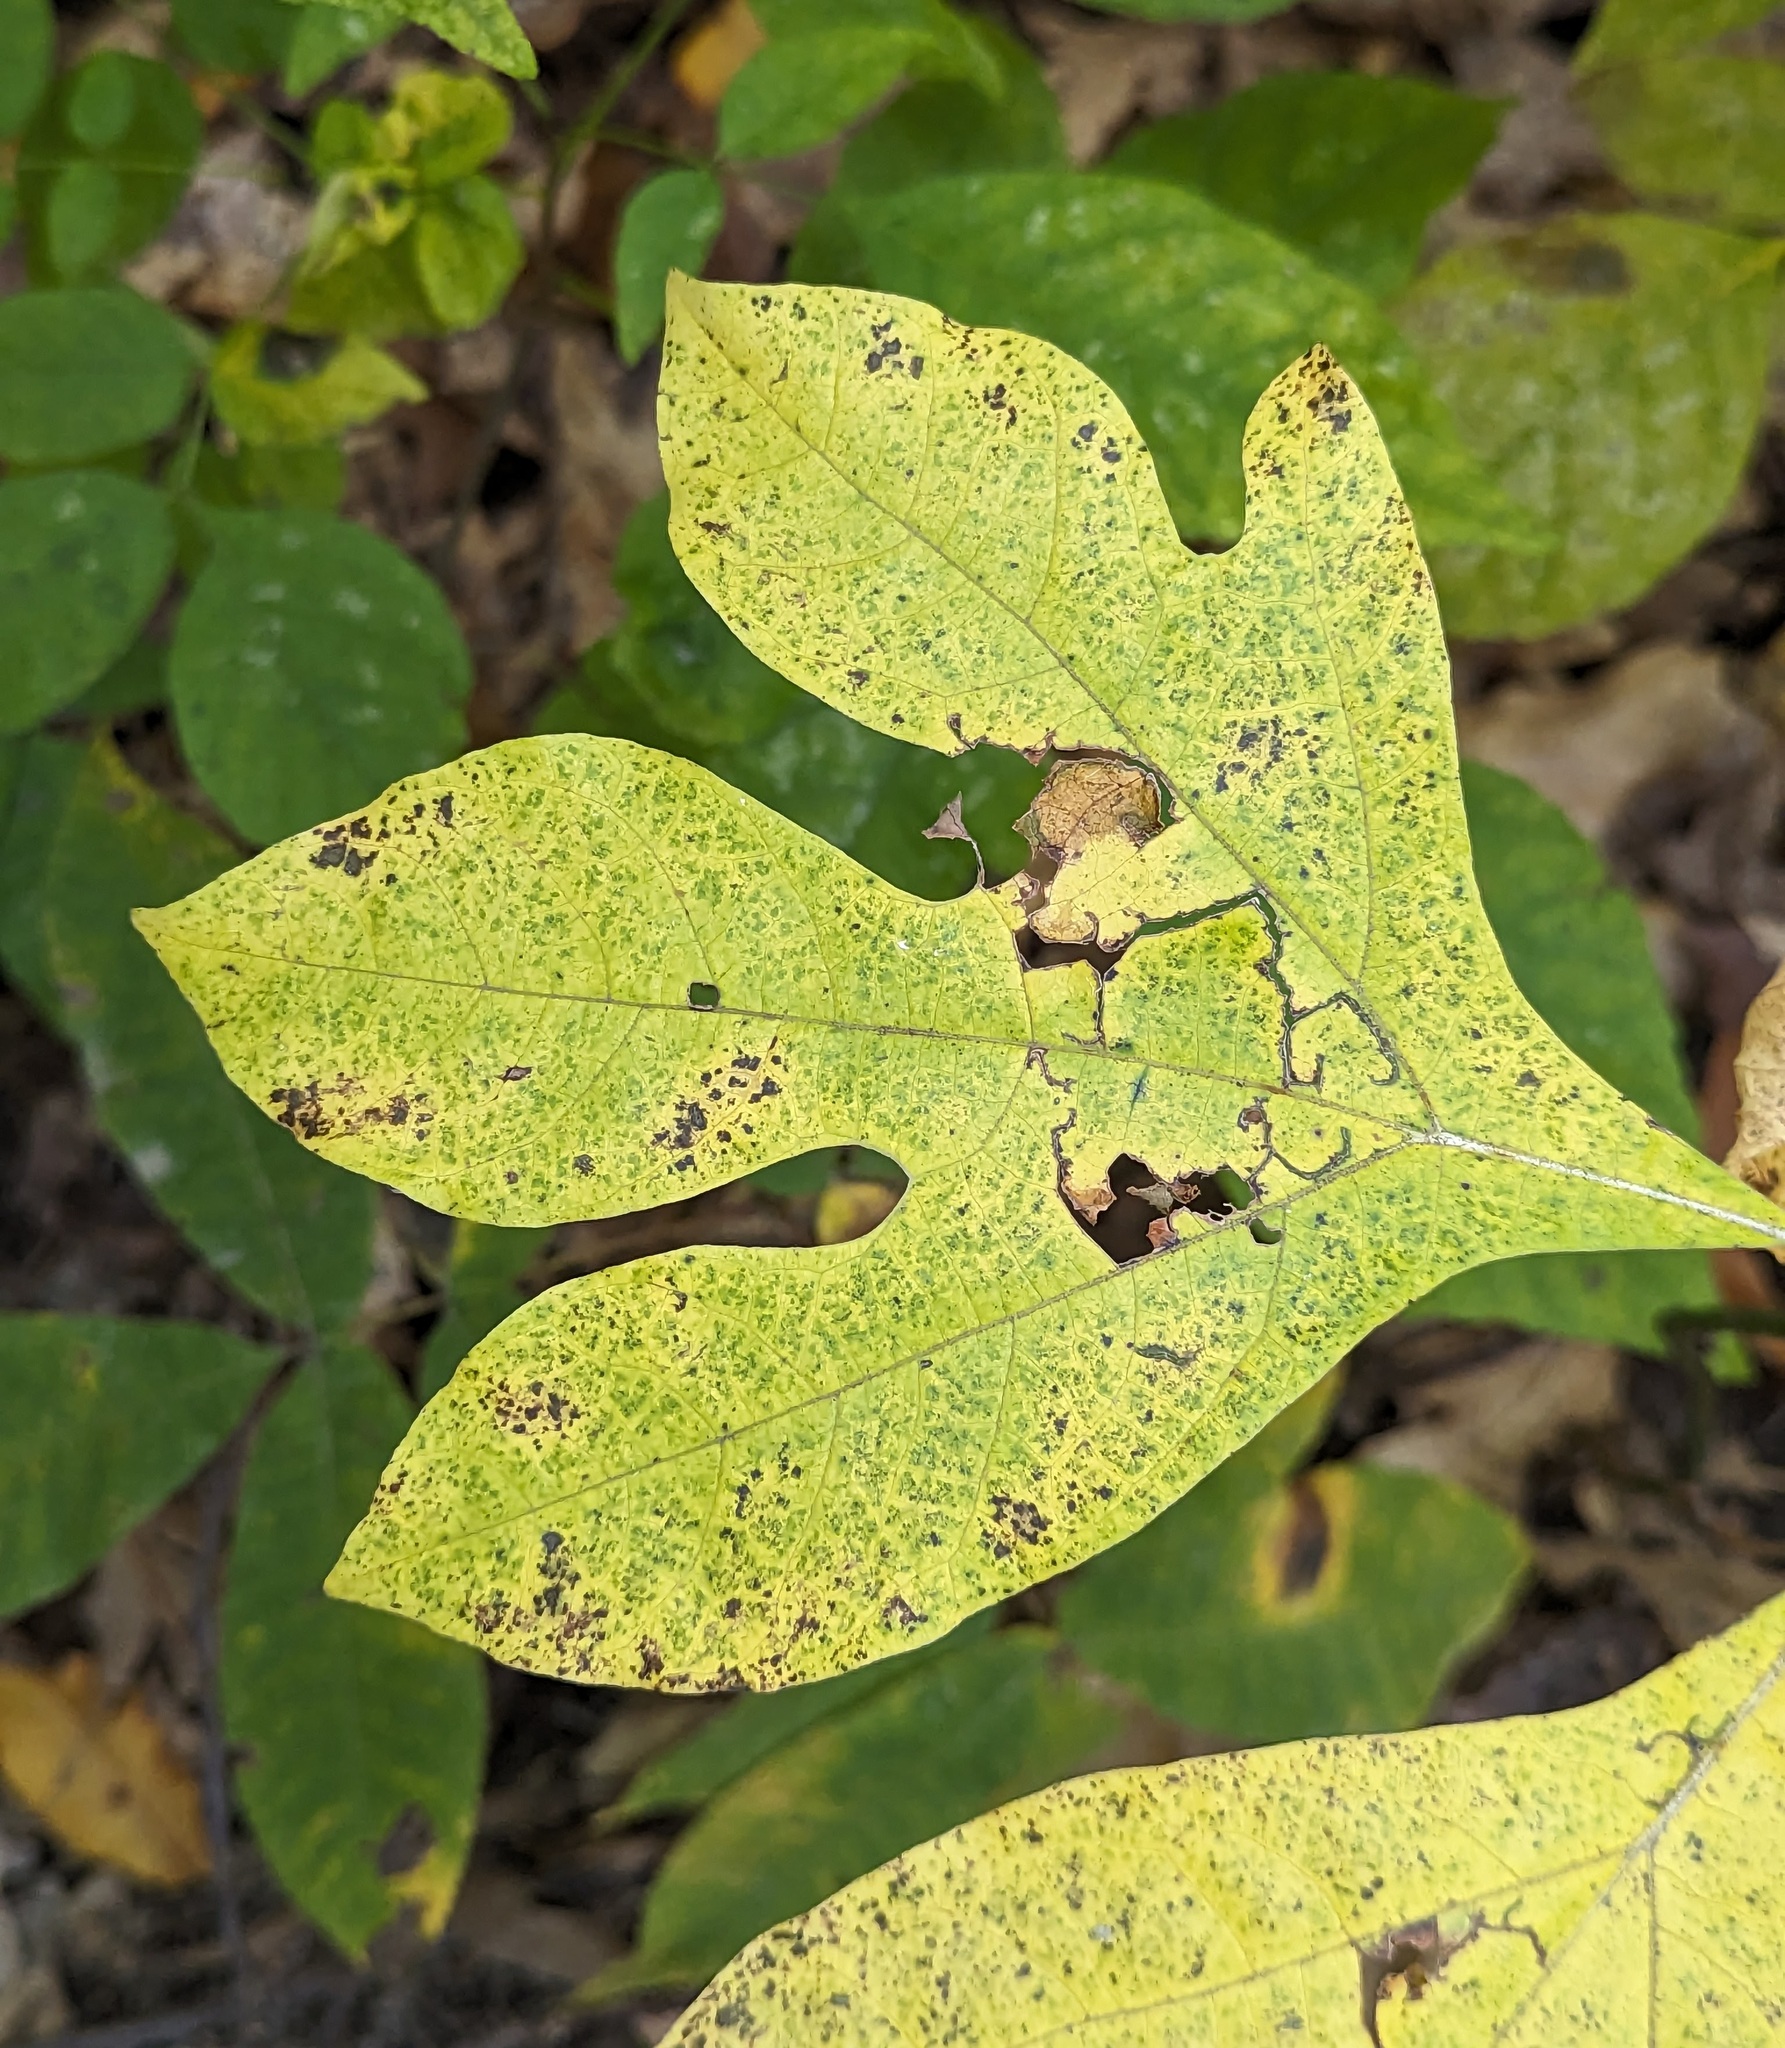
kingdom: Plantae
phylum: Tracheophyta
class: Magnoliopsida
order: Laurales
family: Lauraceae
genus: Sassafras
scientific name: Sassafras albidum
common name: Sassafras
